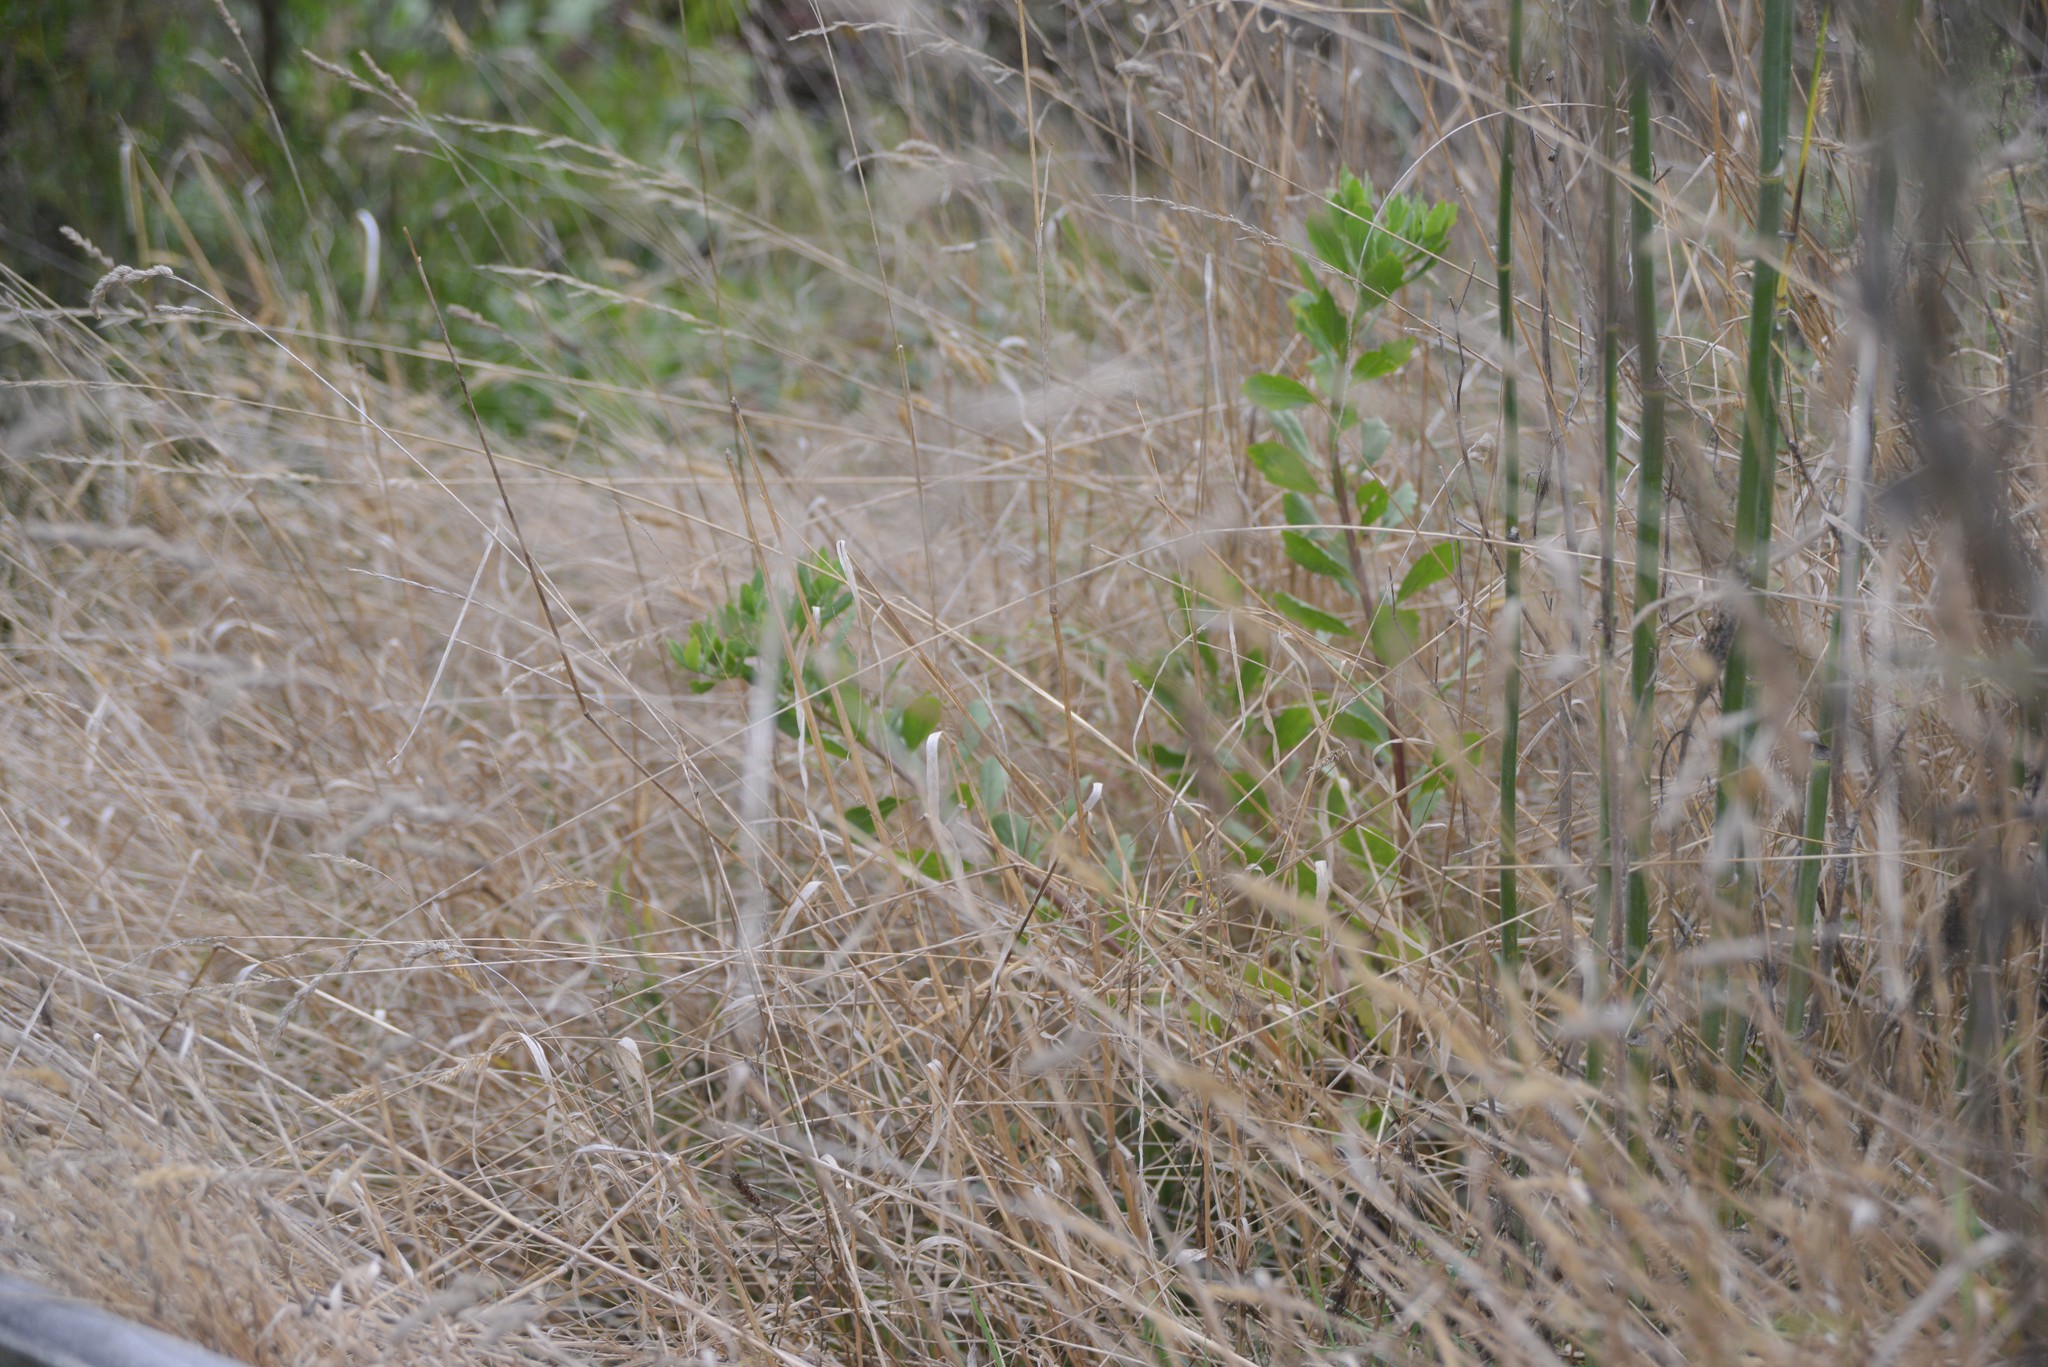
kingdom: Plantae
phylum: Tracheophyta
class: Magnoliopsida
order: Asterales
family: Asteraceae
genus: Osteospermum
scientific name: Osteospermum moniliferum
